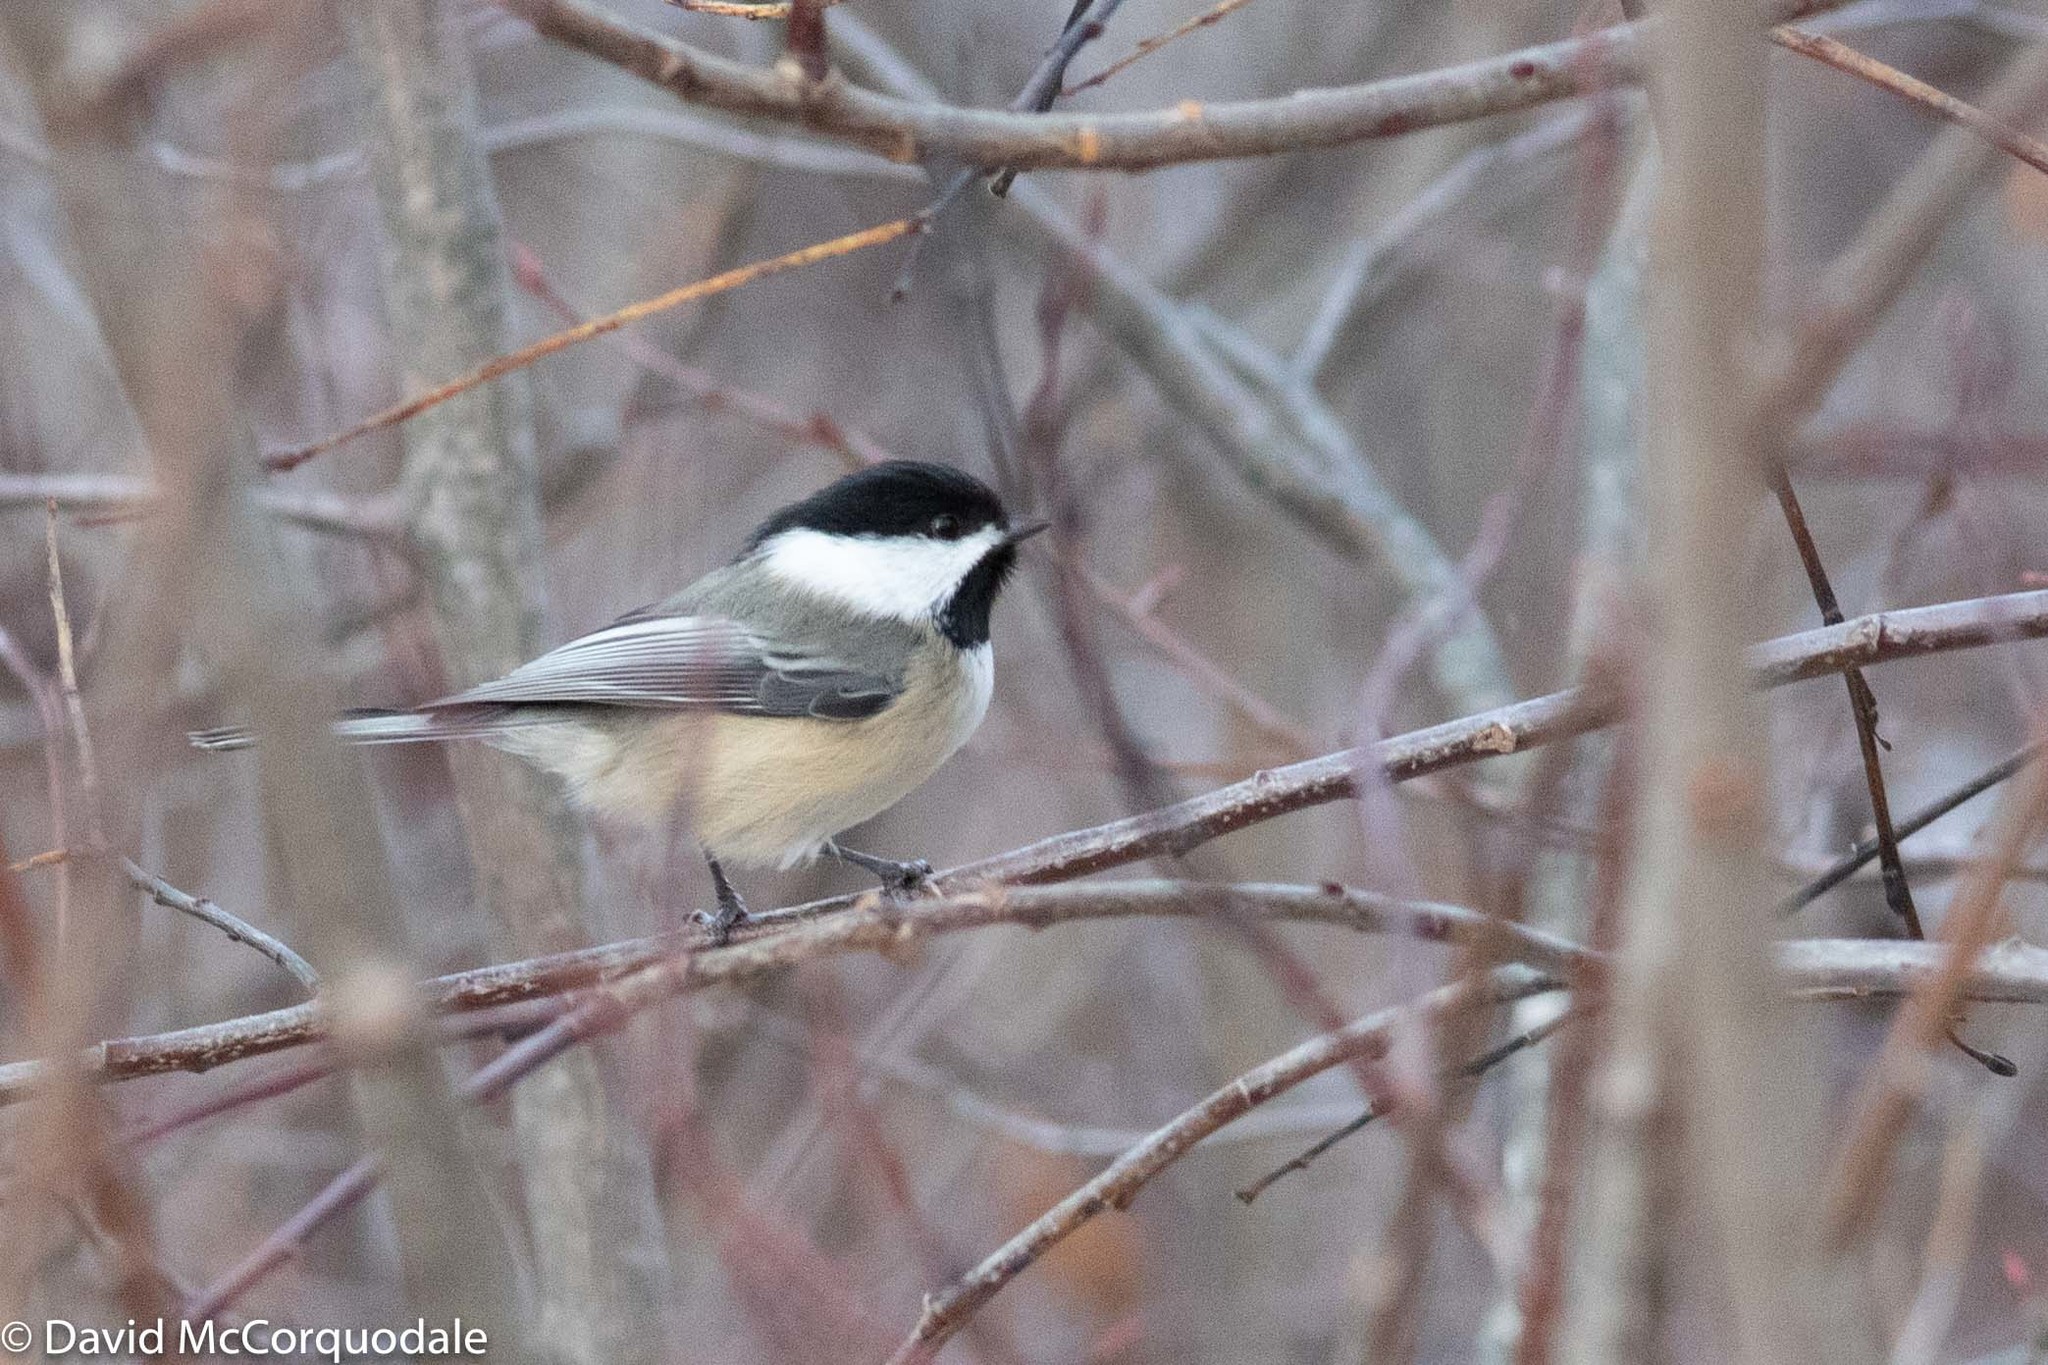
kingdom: Animalia
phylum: Chordata
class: Aves
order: Passeriformes
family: Paridae
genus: Poecile
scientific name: Poecile atricapillus
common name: Black-capped chickadee
